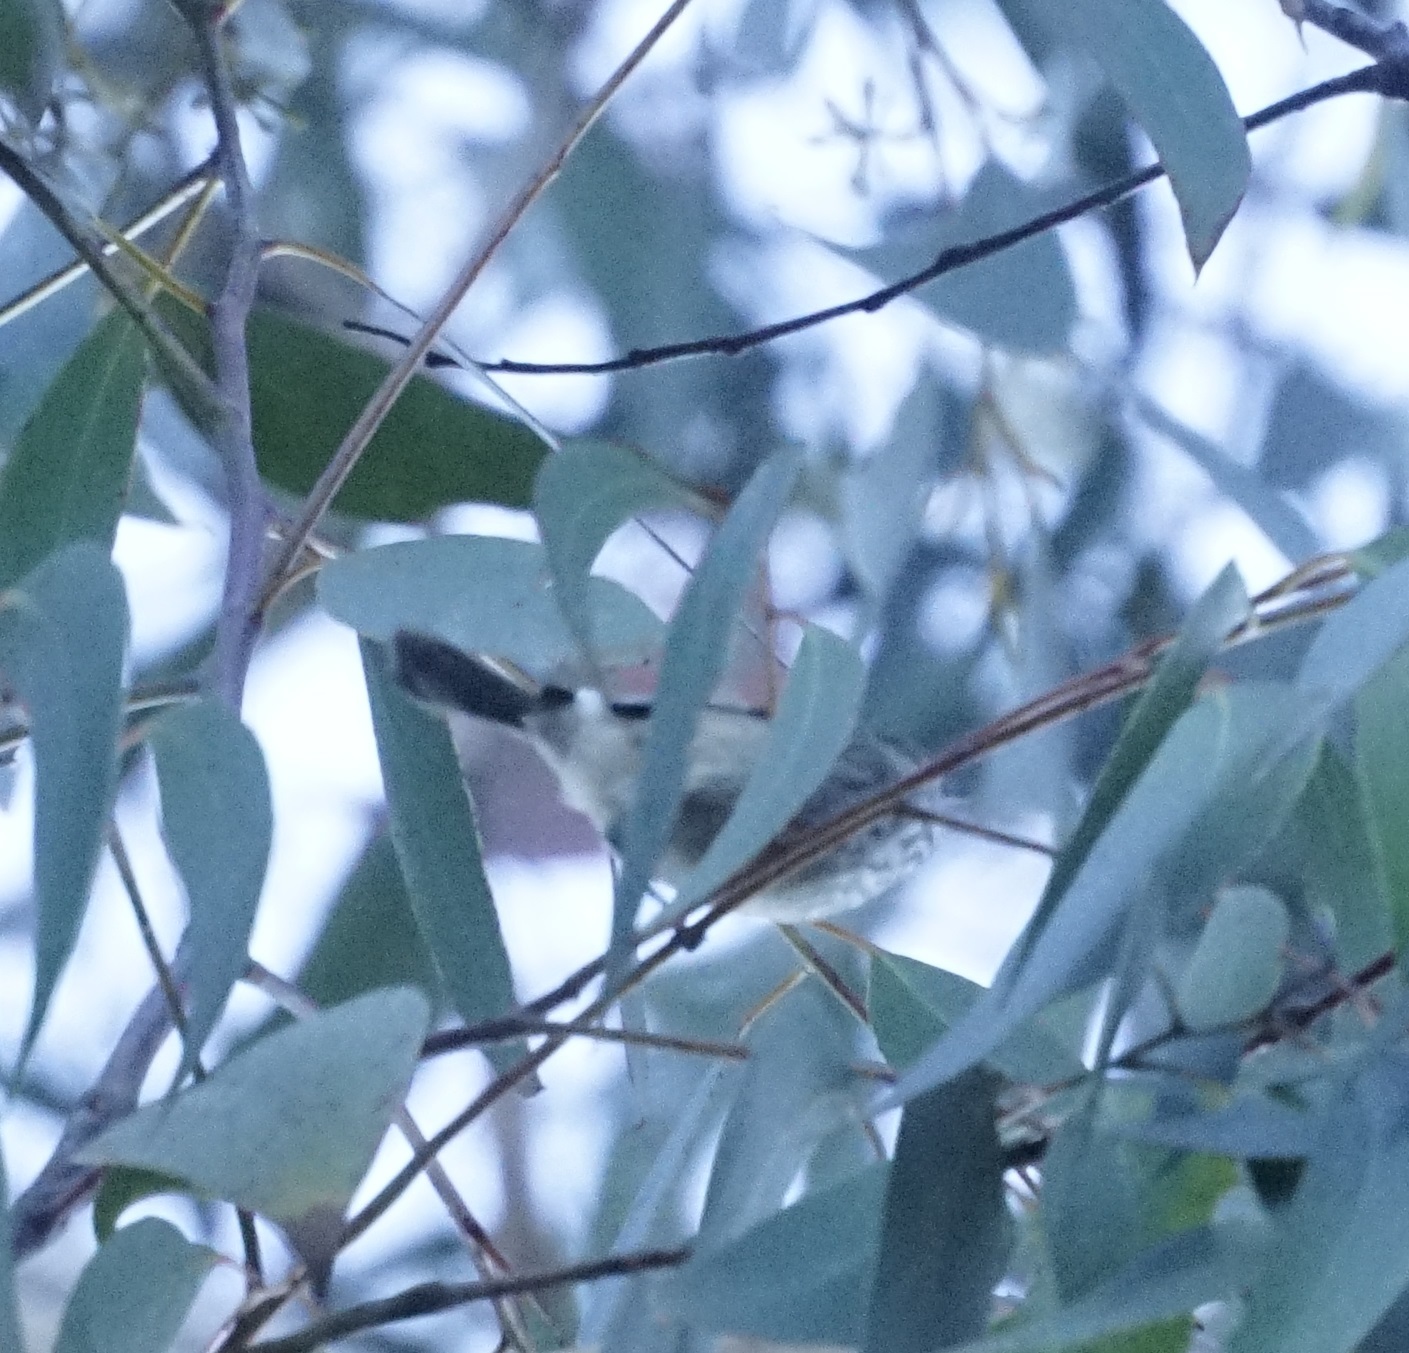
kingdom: Animalia
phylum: Chordata
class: Aves
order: Passeriformes
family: Acanthizidae
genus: Acanthiza
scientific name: Acanthiza pusilla
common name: Brown thornbill
